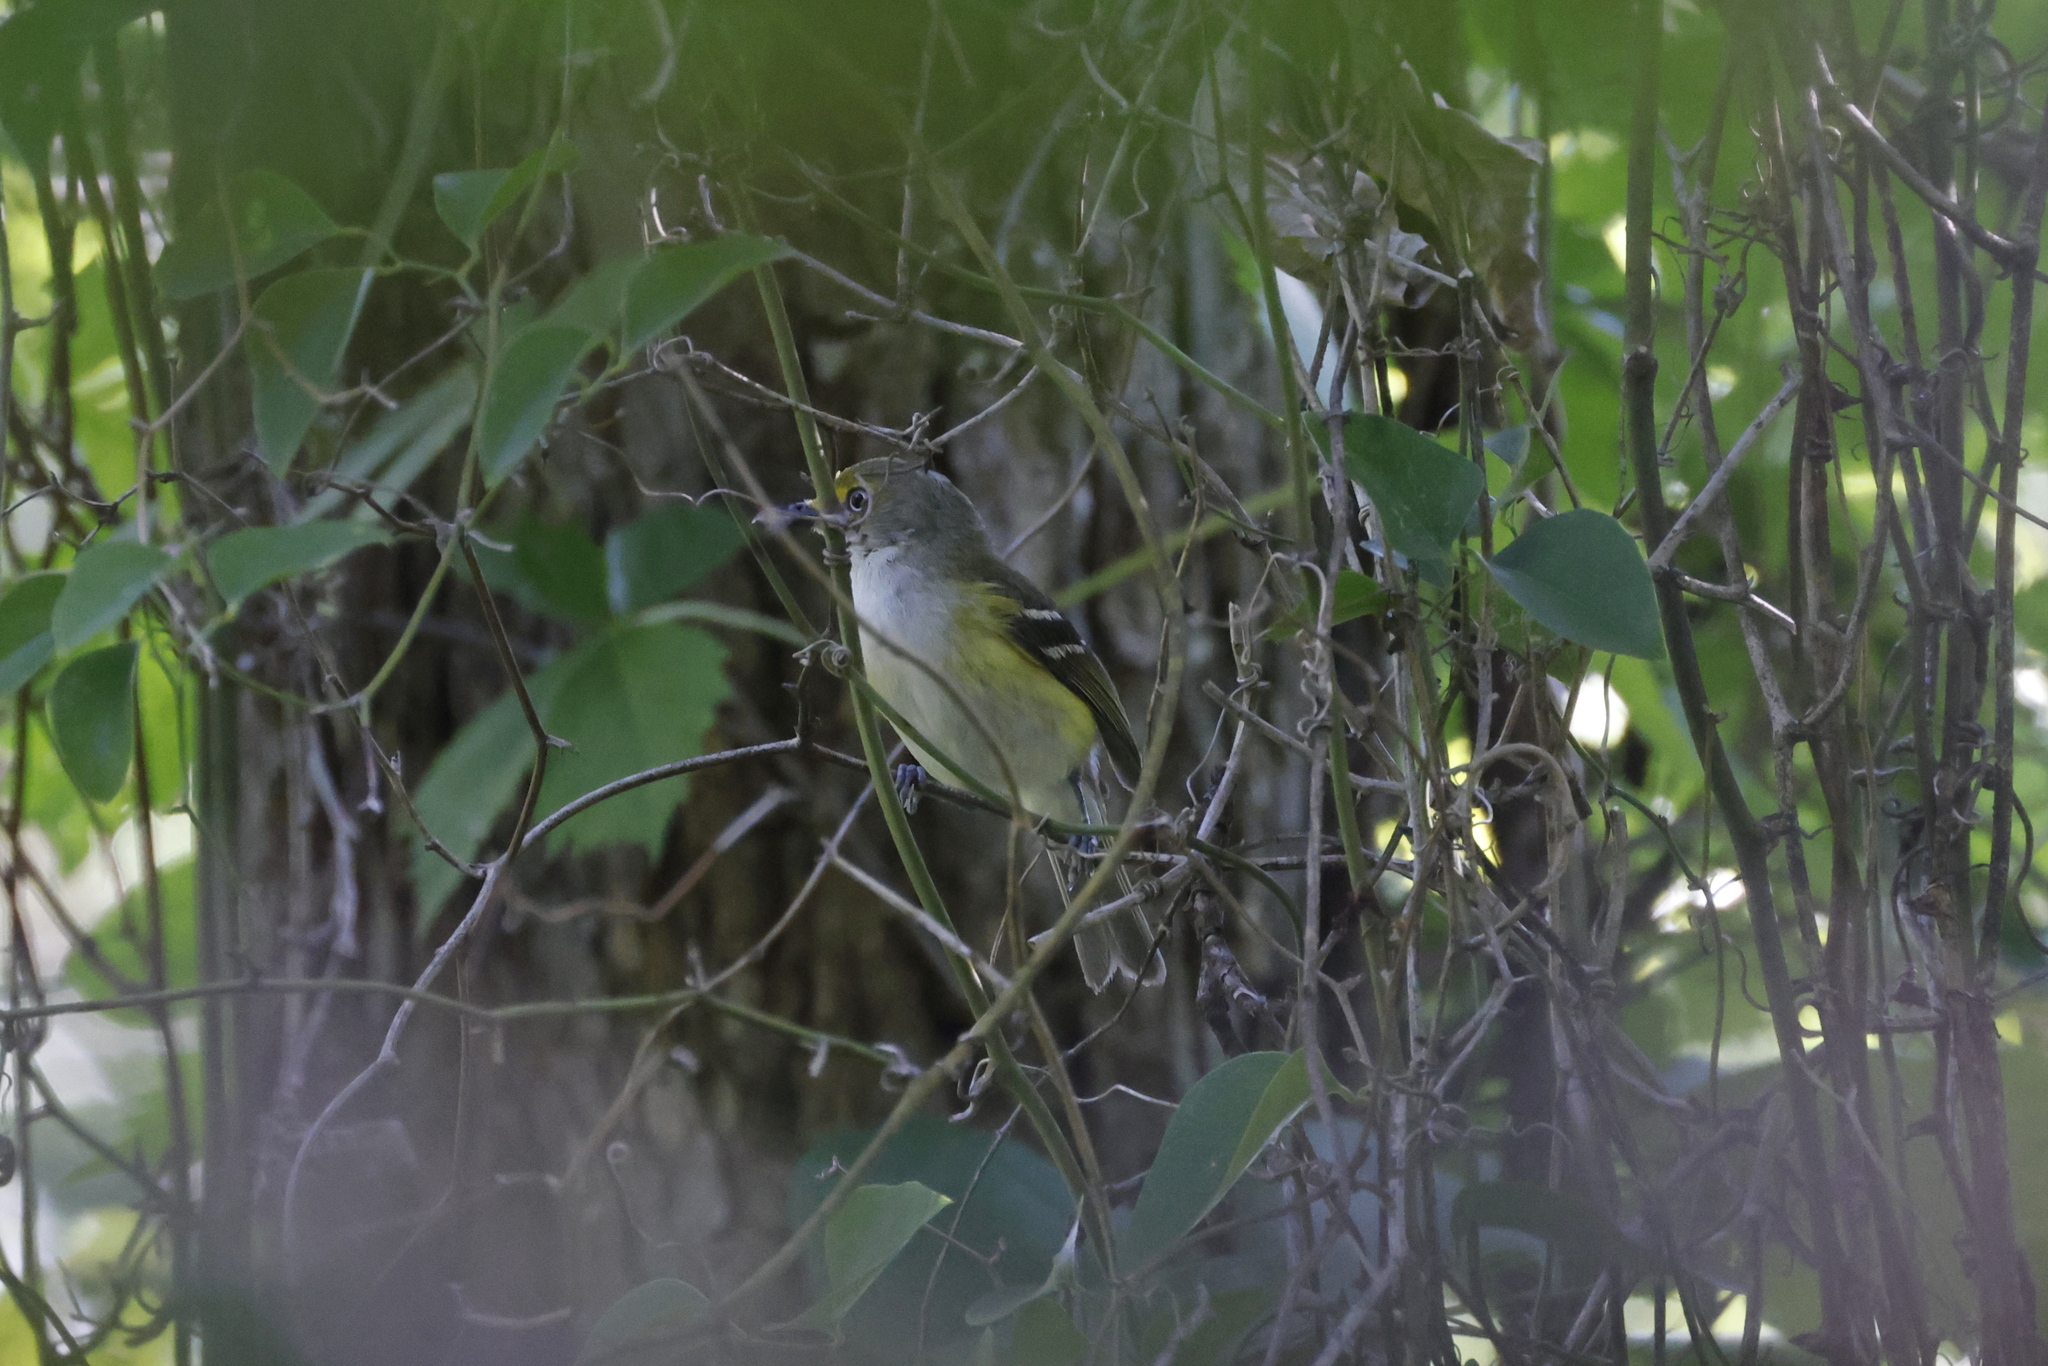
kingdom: Animalia
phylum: Chordata
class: Aves
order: Passeriformes
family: Vireonidae
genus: Vireo
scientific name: Vireo griseus
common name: White-eyed vireo
